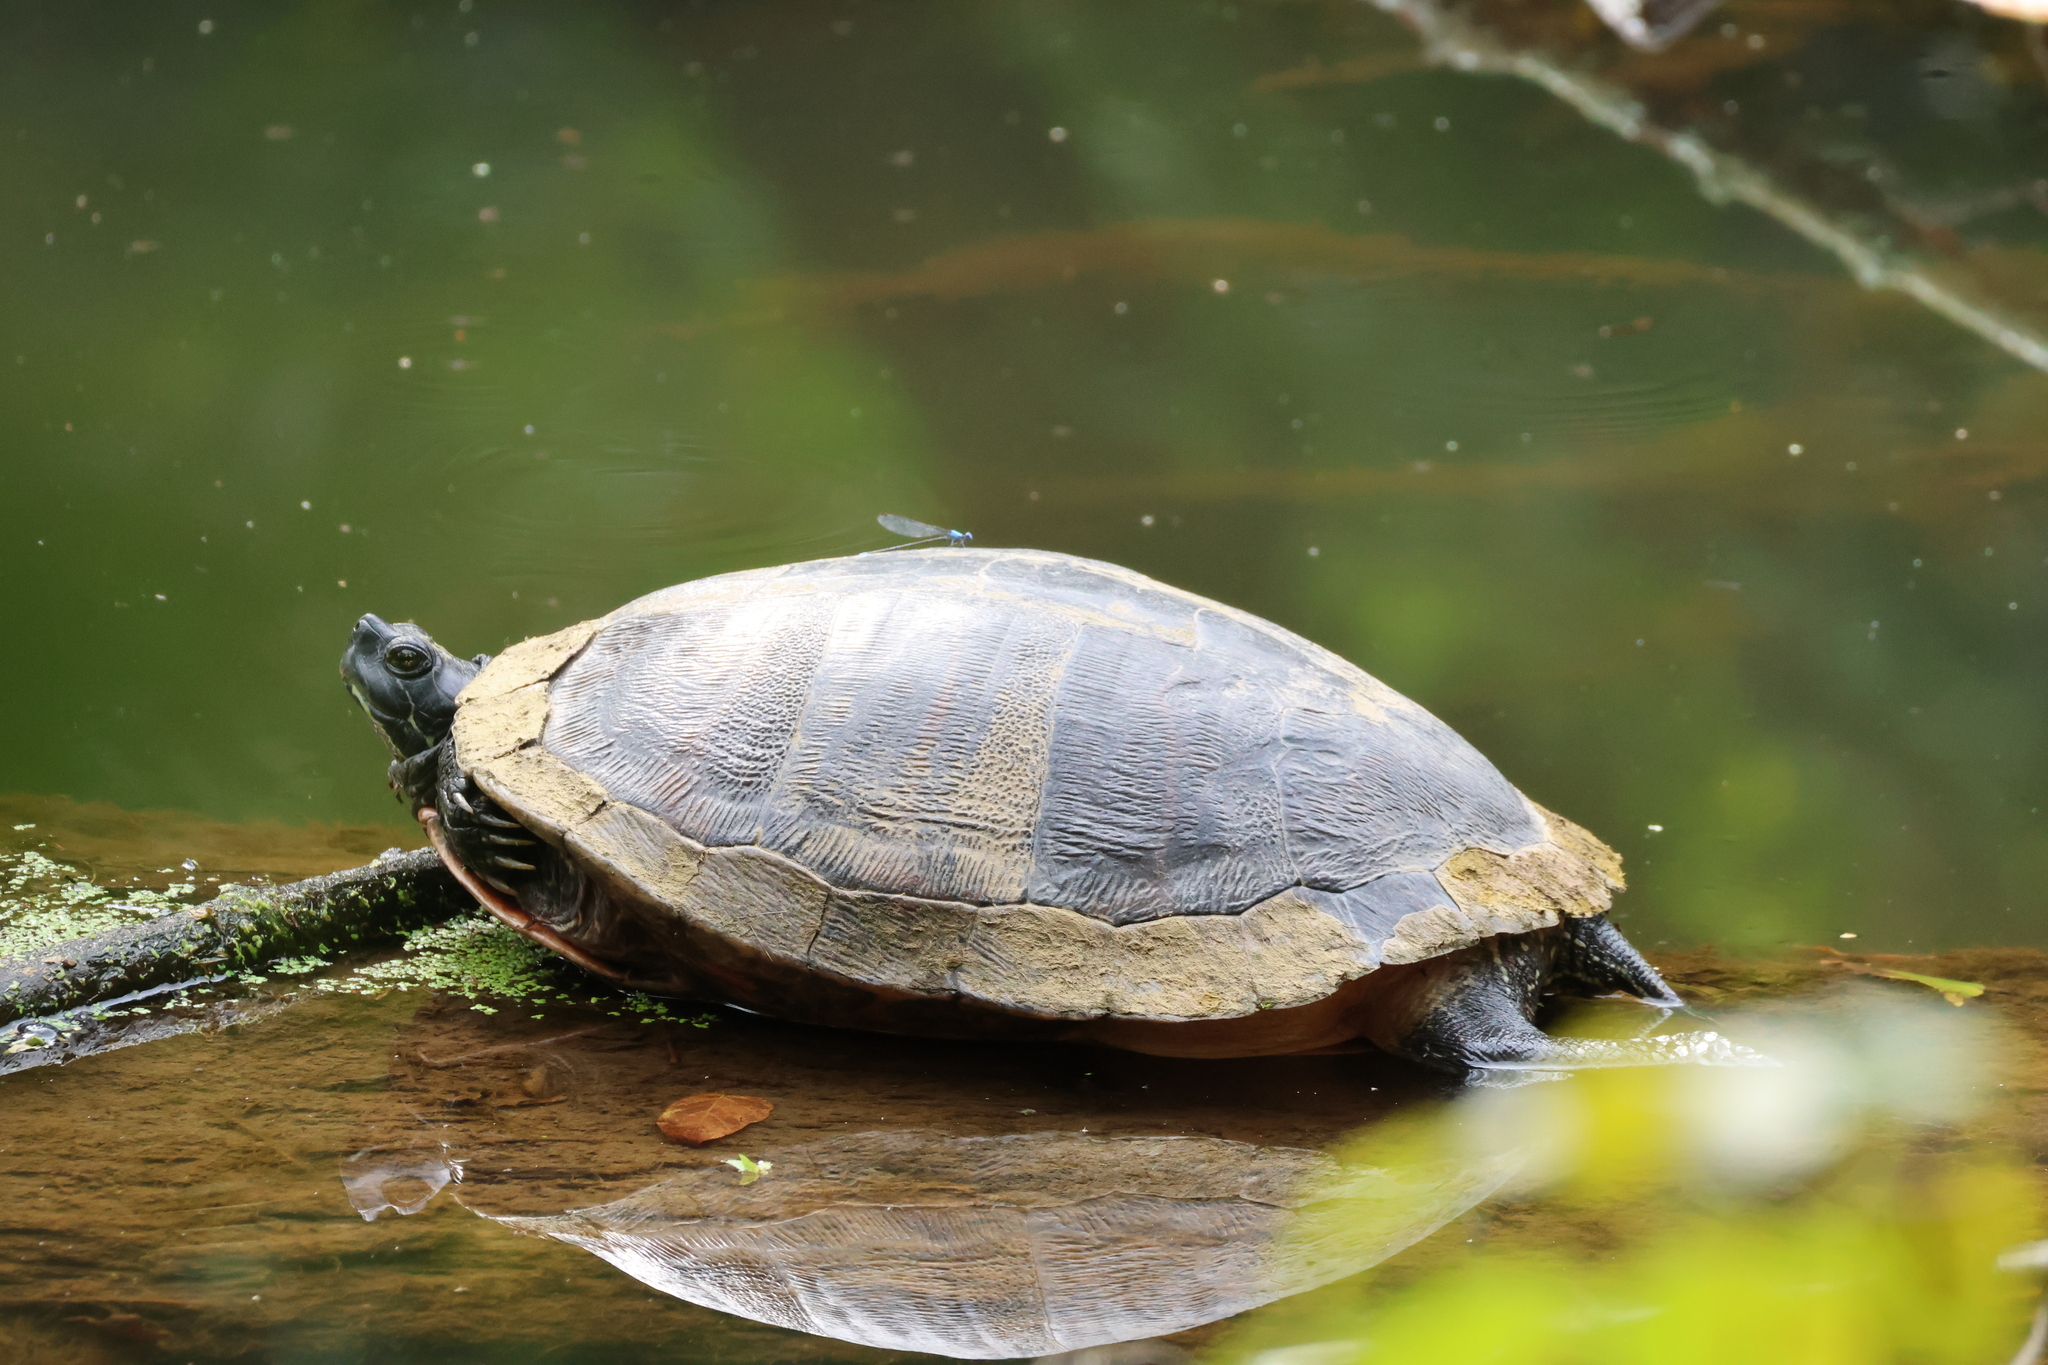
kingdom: Animalia
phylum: Arthropoda
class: Insecta
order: Odonata
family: Coenagrionidae
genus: Argia
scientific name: Argia apicalis
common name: Blue-fronted dancer
